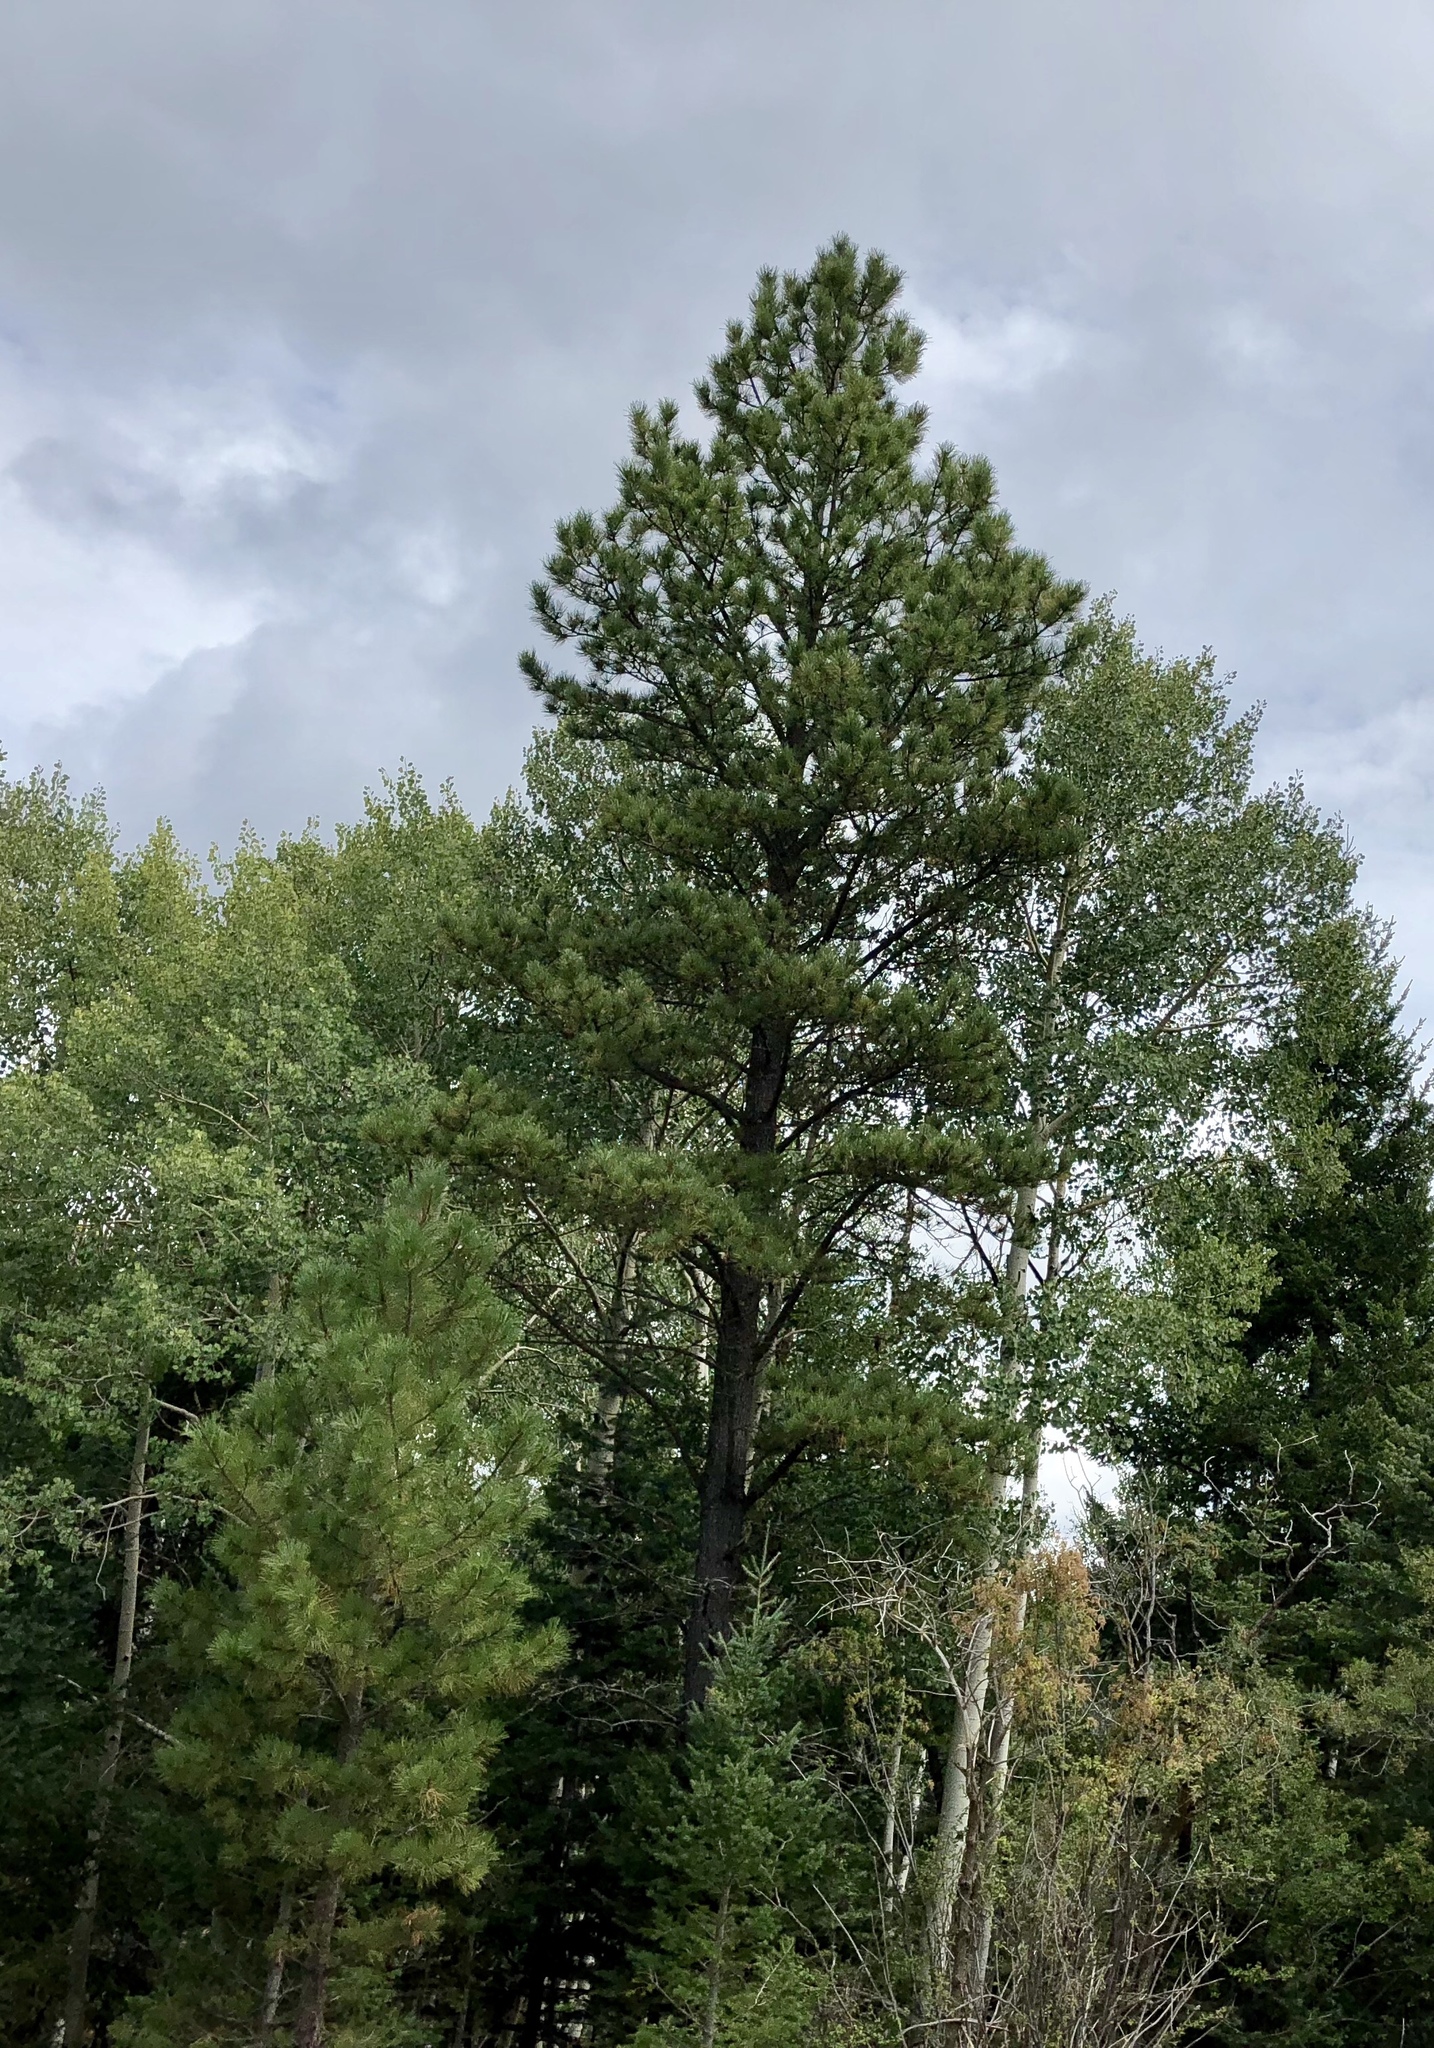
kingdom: Plantae
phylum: Tracheophyta
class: Pinopsida
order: Pinales
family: Pinaceae
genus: Pinus
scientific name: Pinus ponderosa
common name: Western yellow-pine
